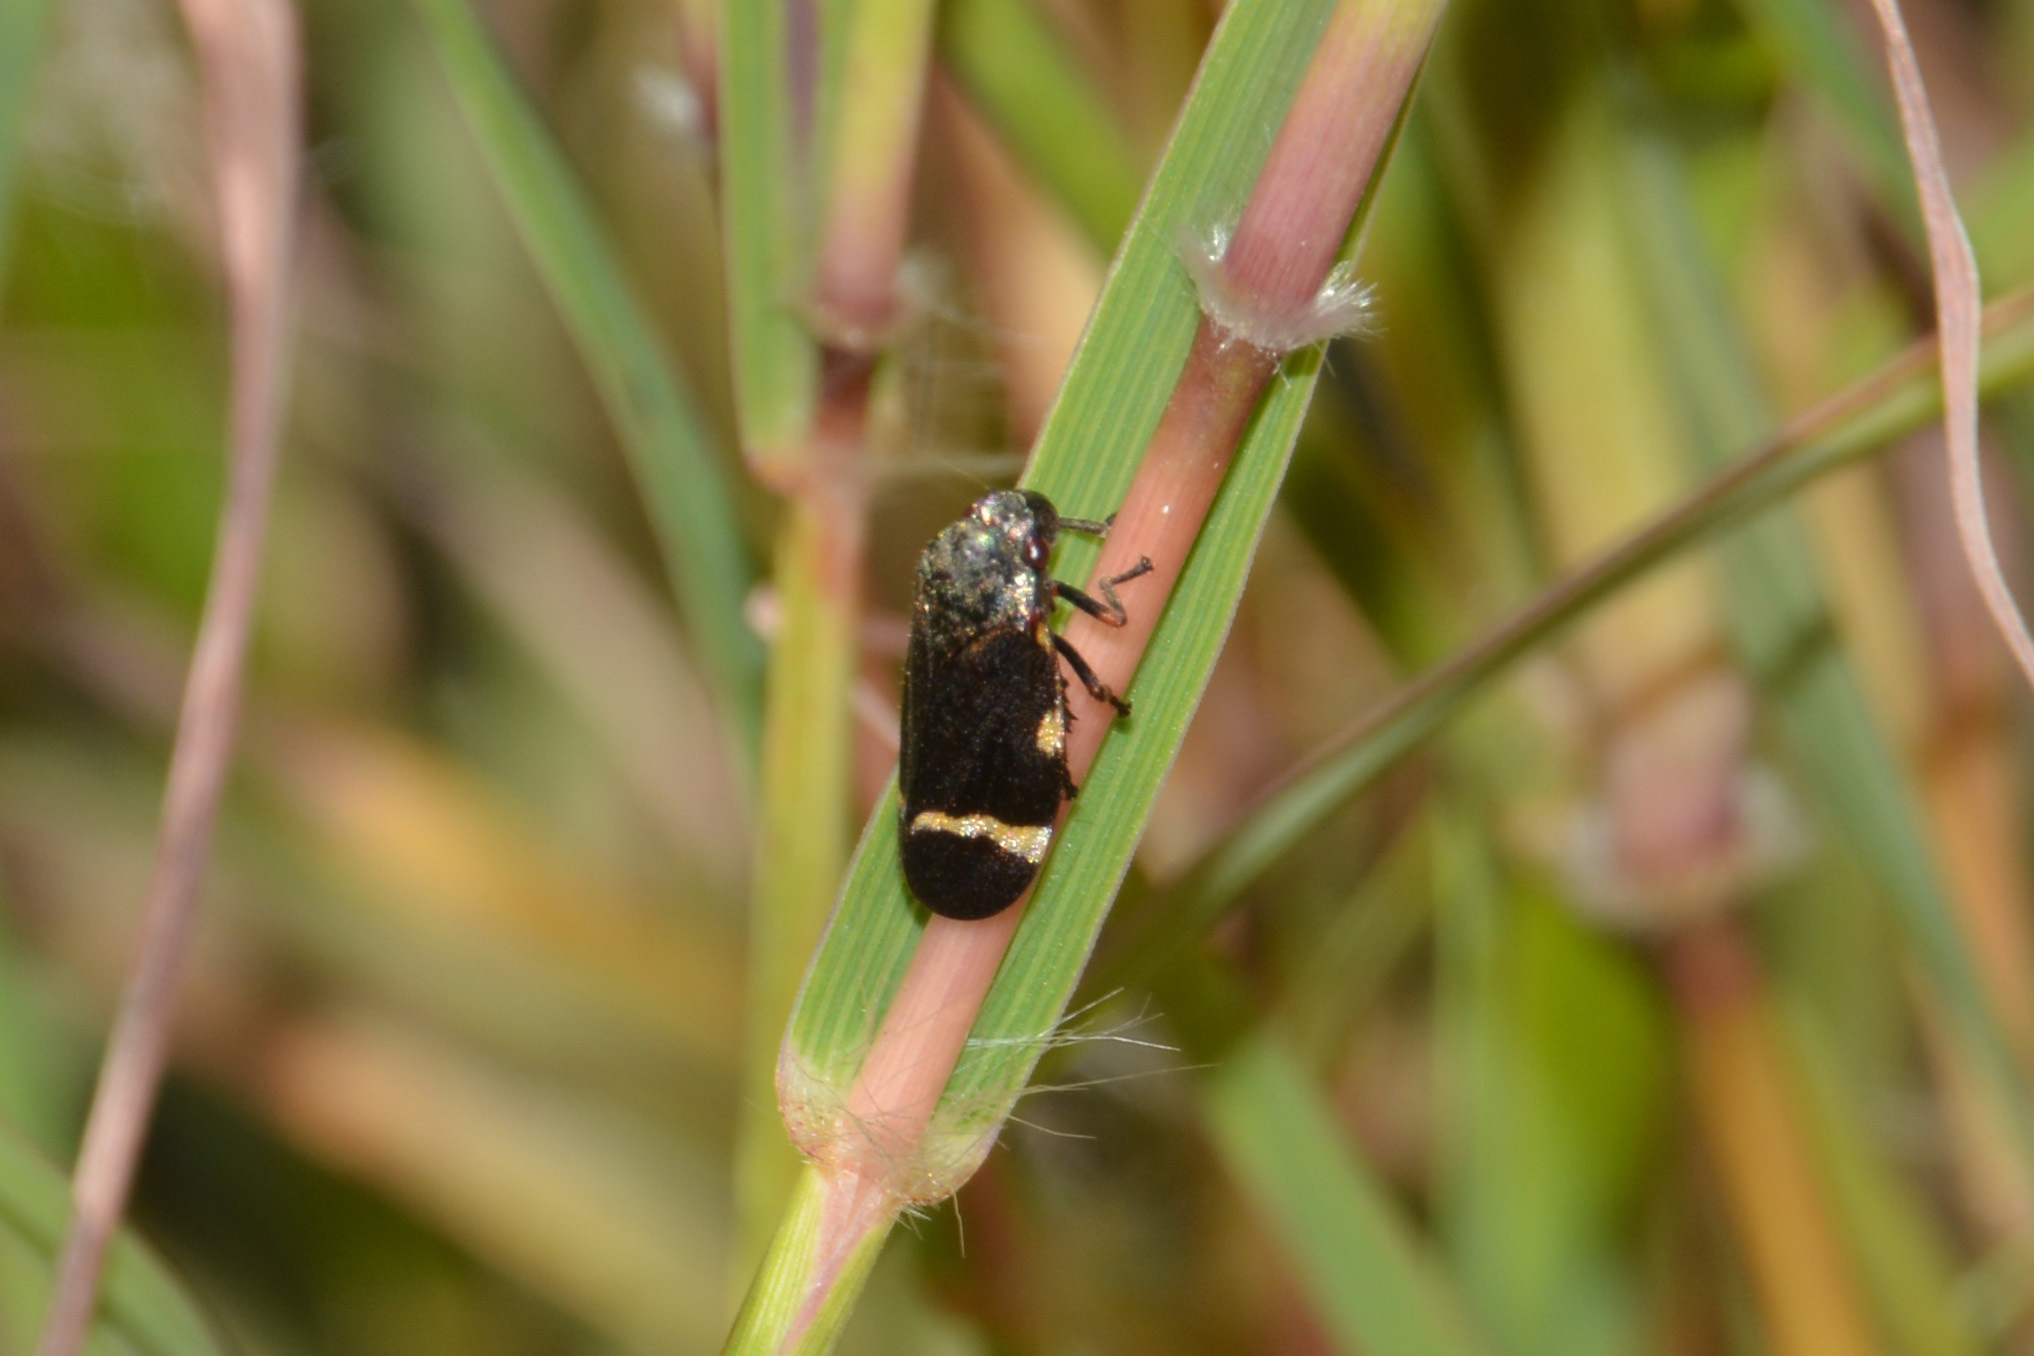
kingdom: Animalia
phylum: Arthropoda
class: Insecta
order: Hemiptera
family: Cercopidae
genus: Notozulia
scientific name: Notozulia entreriana
